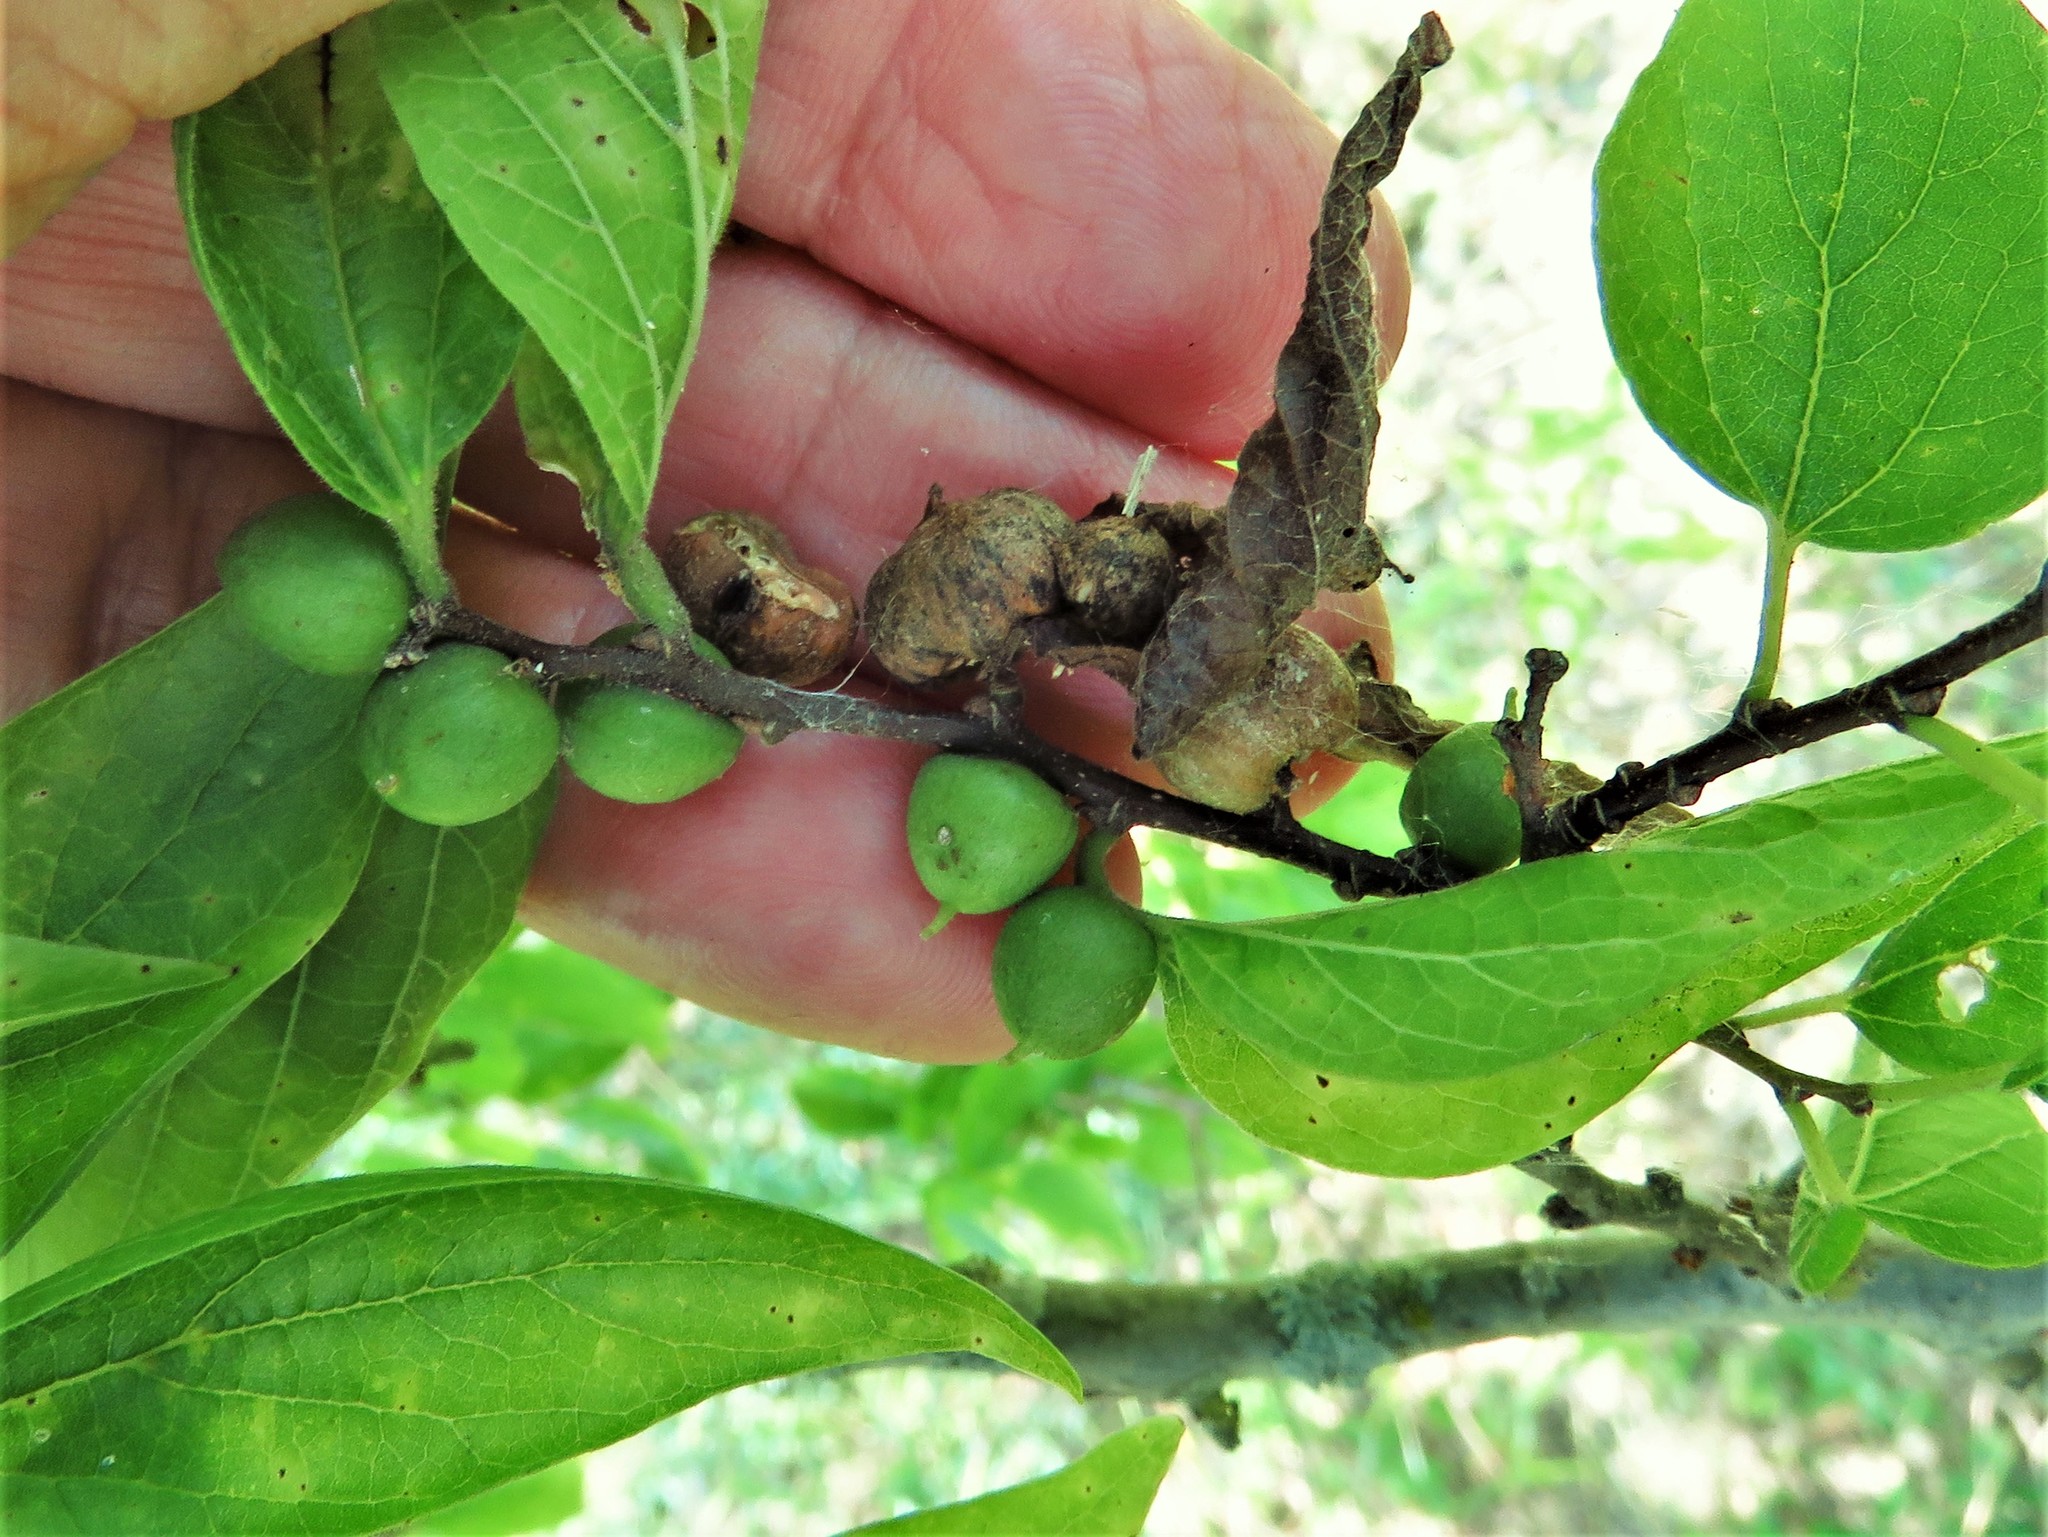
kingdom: Animalia
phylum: Arthropoda
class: Insecta
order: Diptera
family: Cecidomyiidae
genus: Celticecis
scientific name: Celticecis connata
